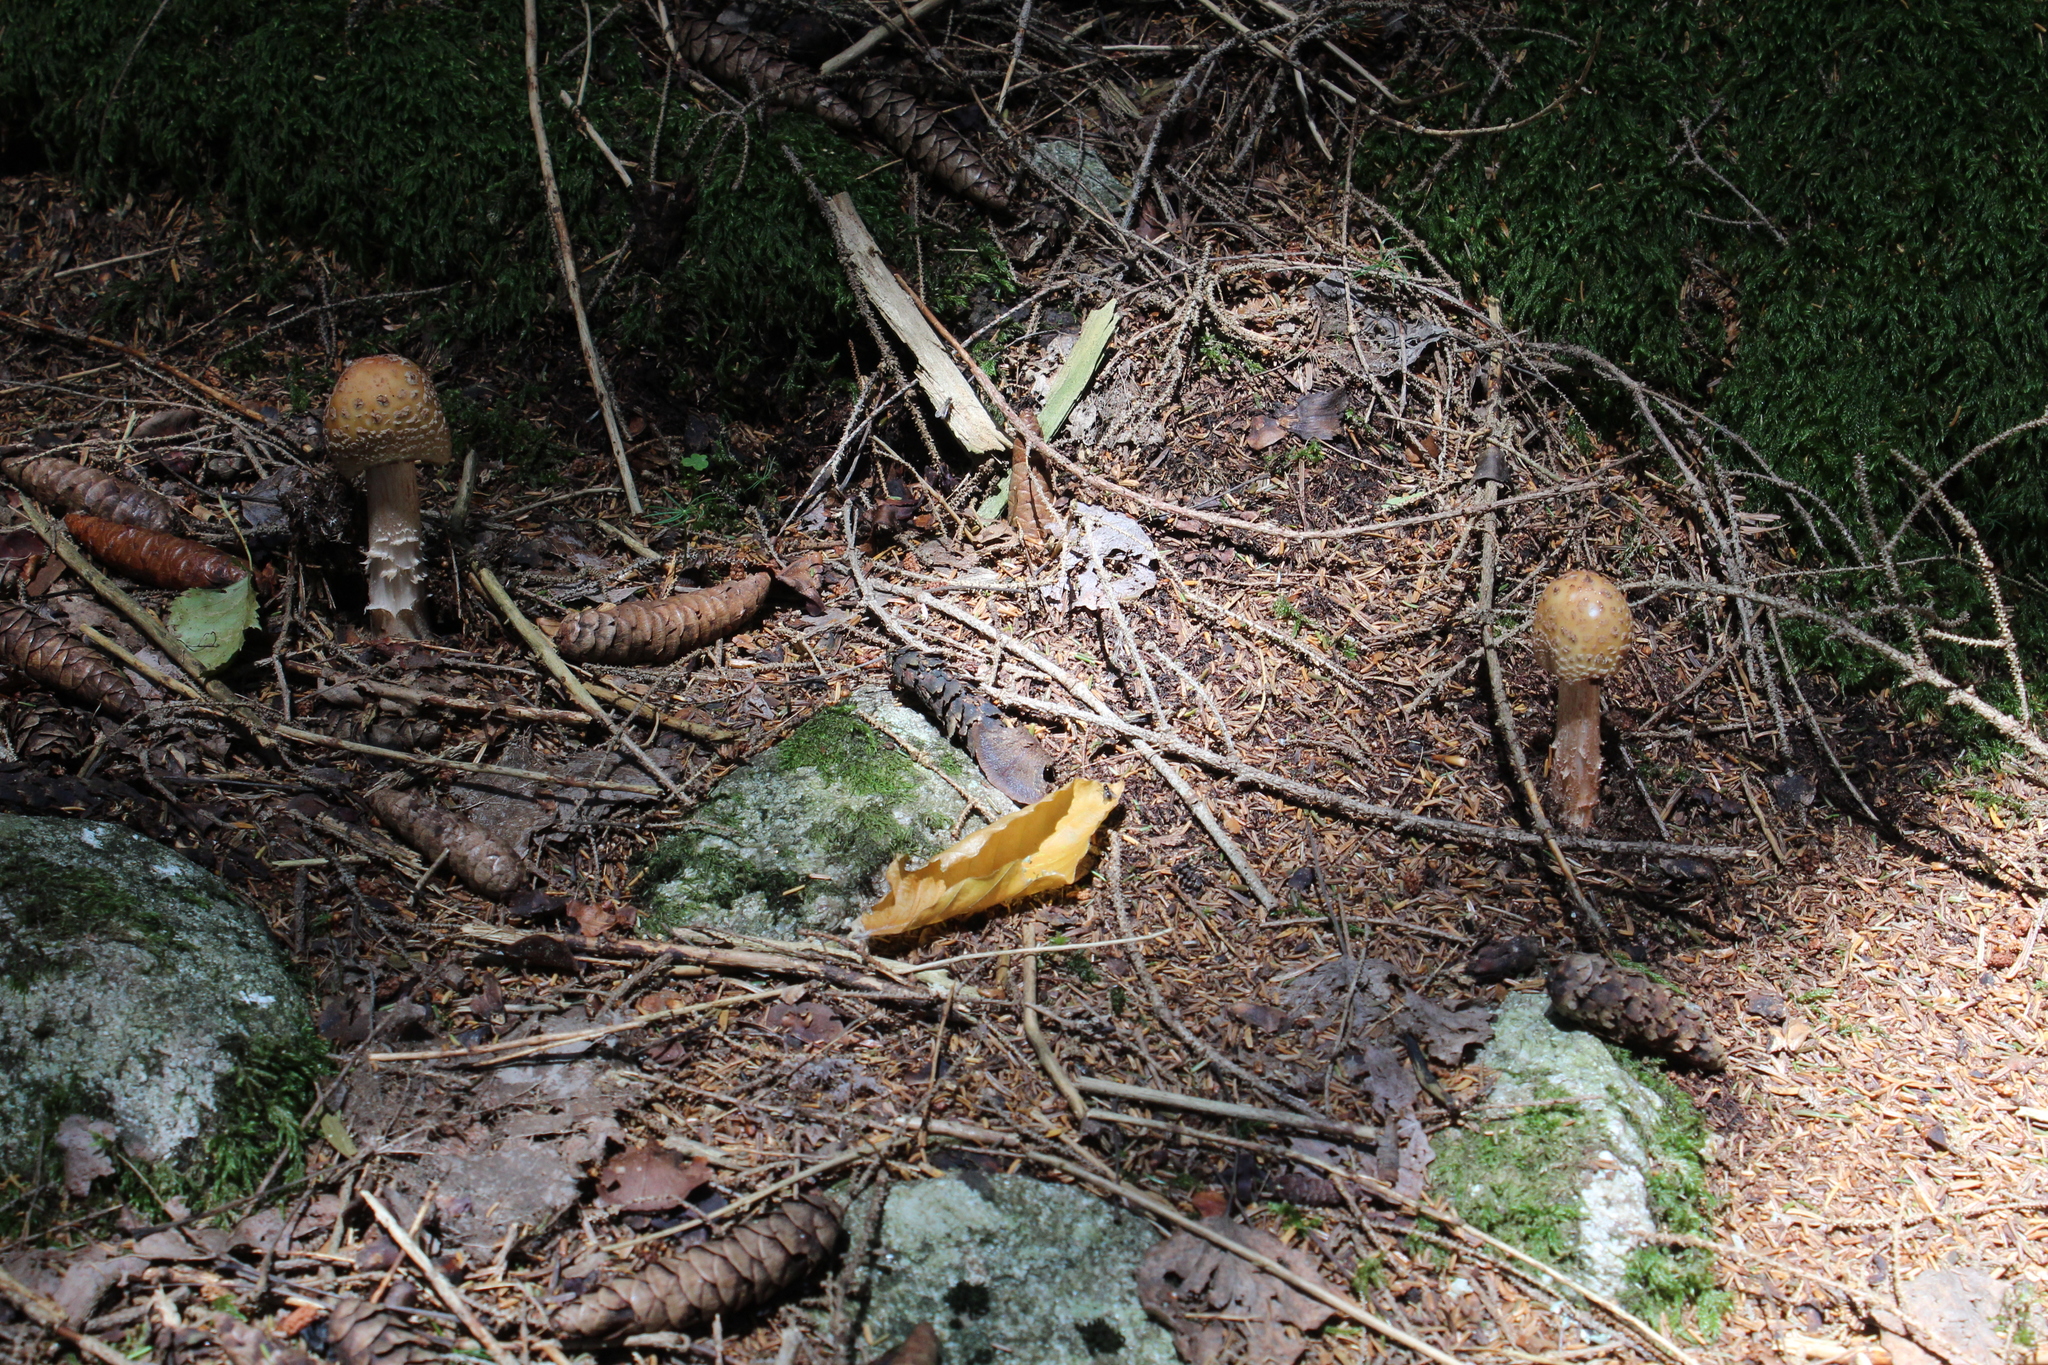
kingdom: Fungi
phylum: Basidiomycota
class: Agaricomycetes
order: Agaricales
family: Amanitaceae
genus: Amanita
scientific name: Amanita rubescens
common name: Blusher
